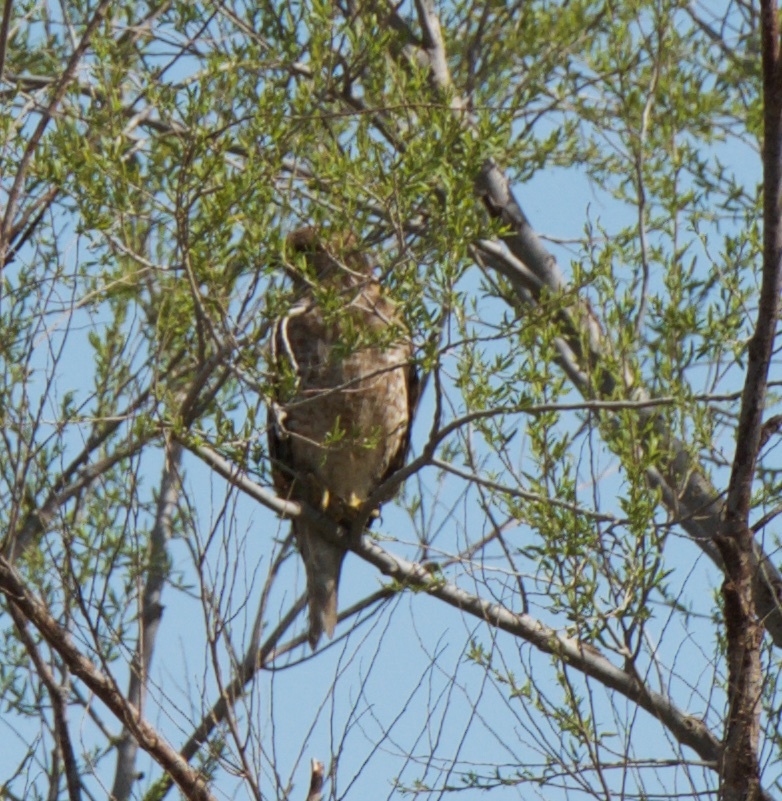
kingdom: Animalia
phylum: Chordata
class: Aves
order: Accipitriformes
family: Accipitridae
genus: Buteo
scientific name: Buteo lineatus
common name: Red-shouldered hawk
